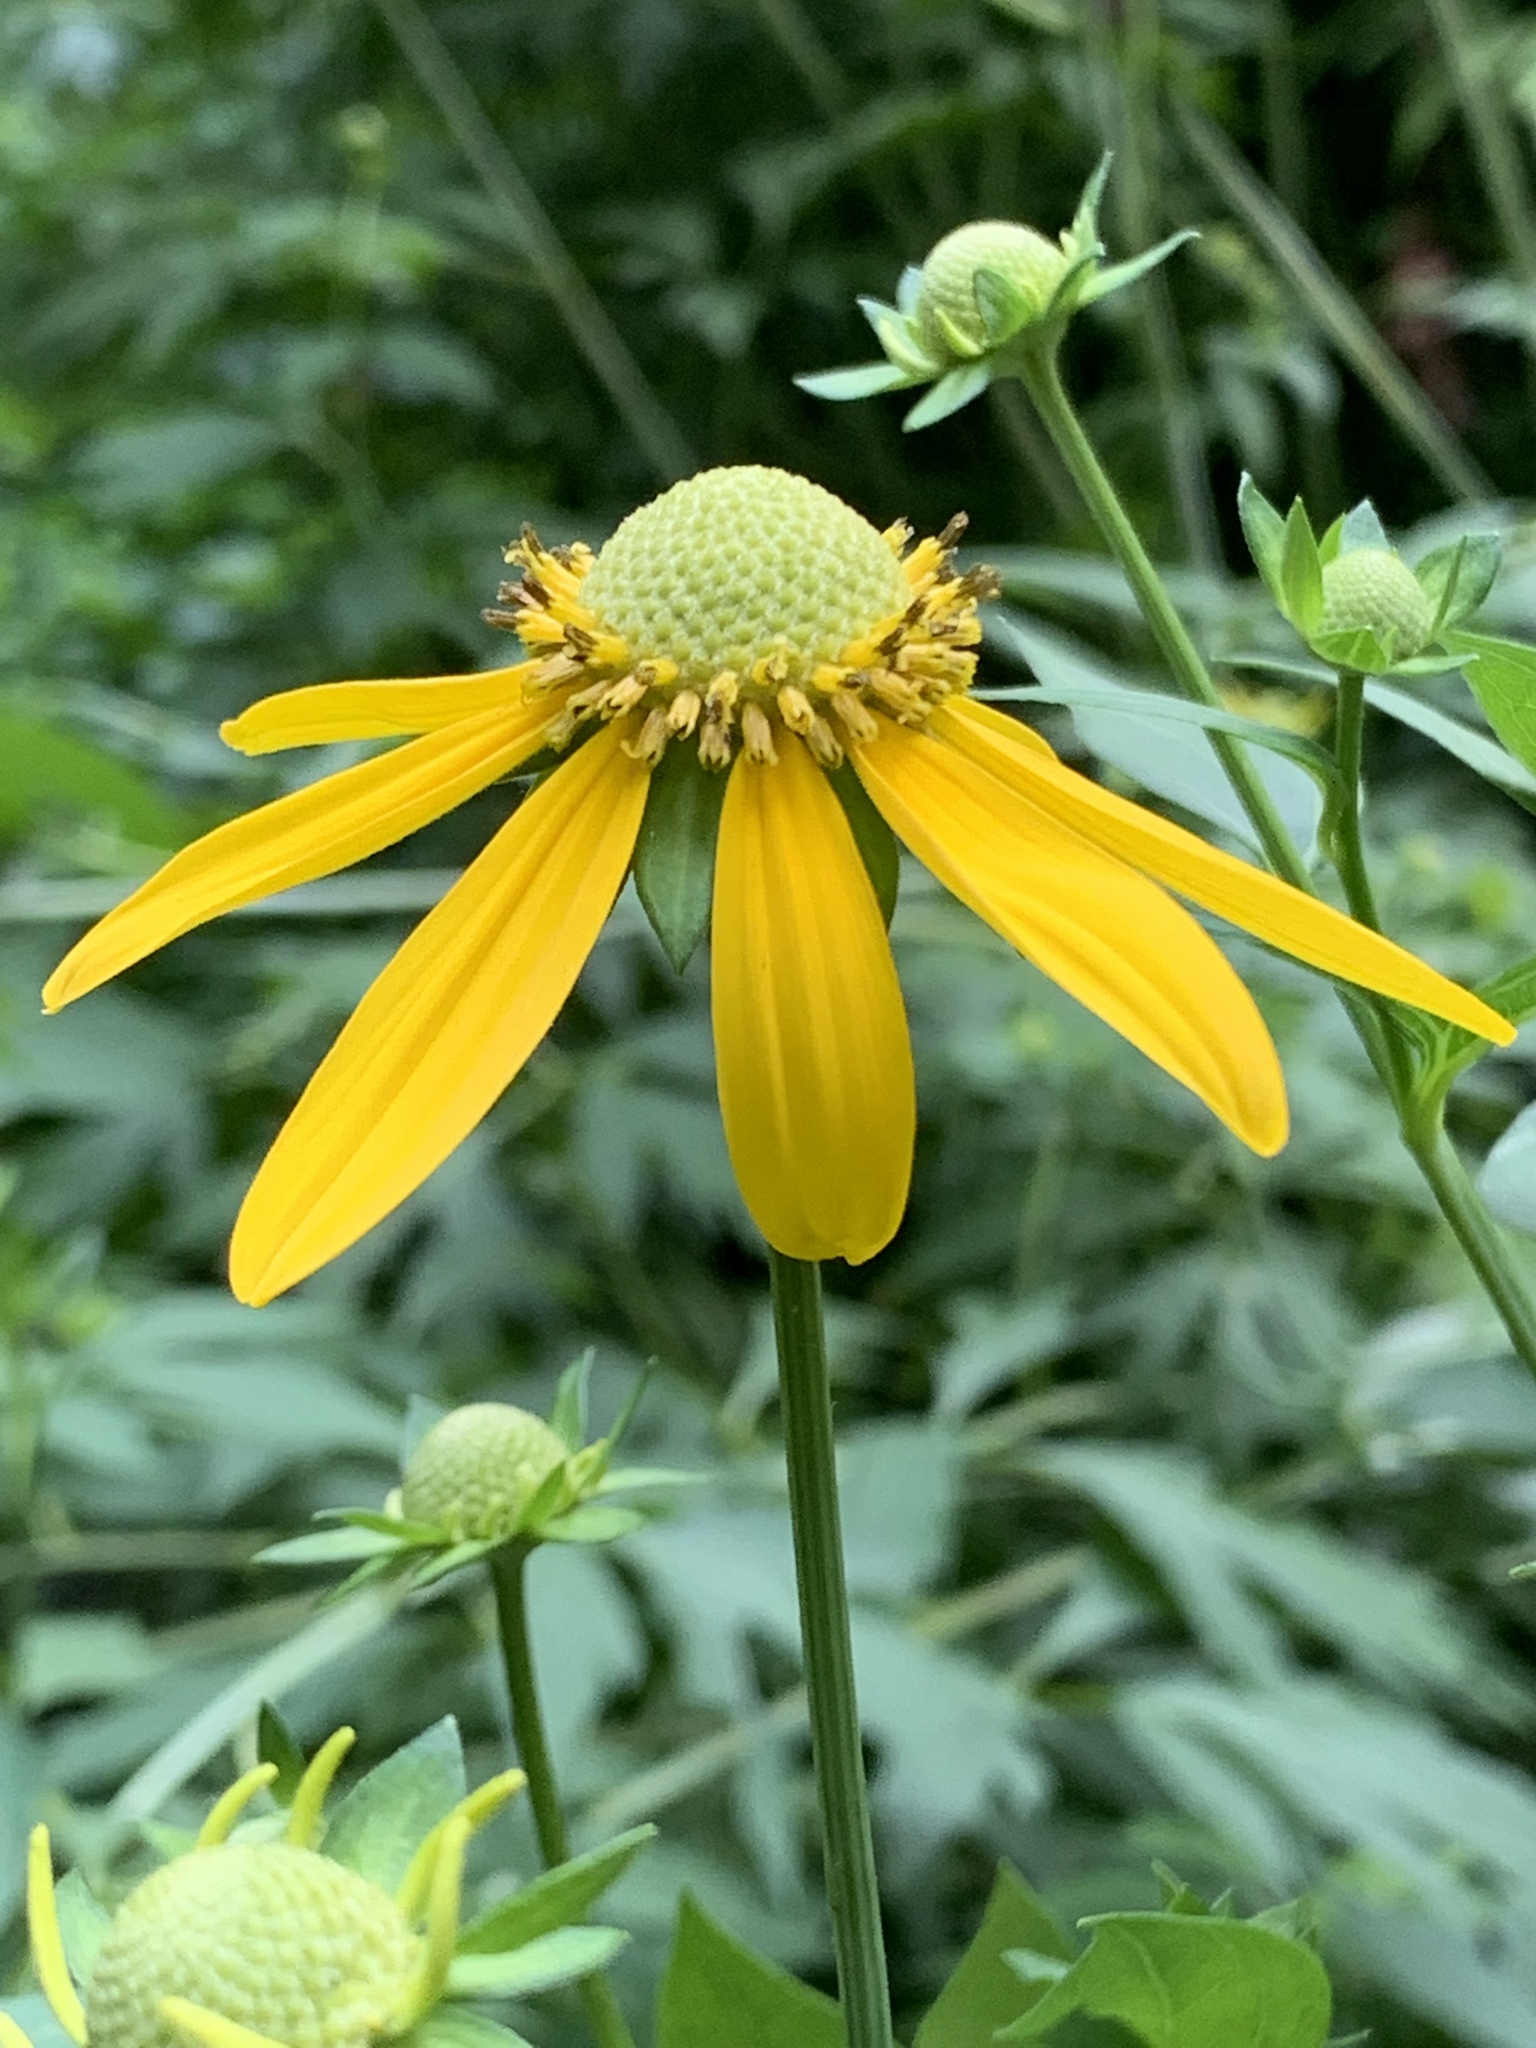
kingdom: Plantae
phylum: Tracheophyta
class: Magnoliopsida
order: Asterales
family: Asteraceae
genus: Rudbeckia
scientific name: Rudbeckia laciniata
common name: Coneflower
